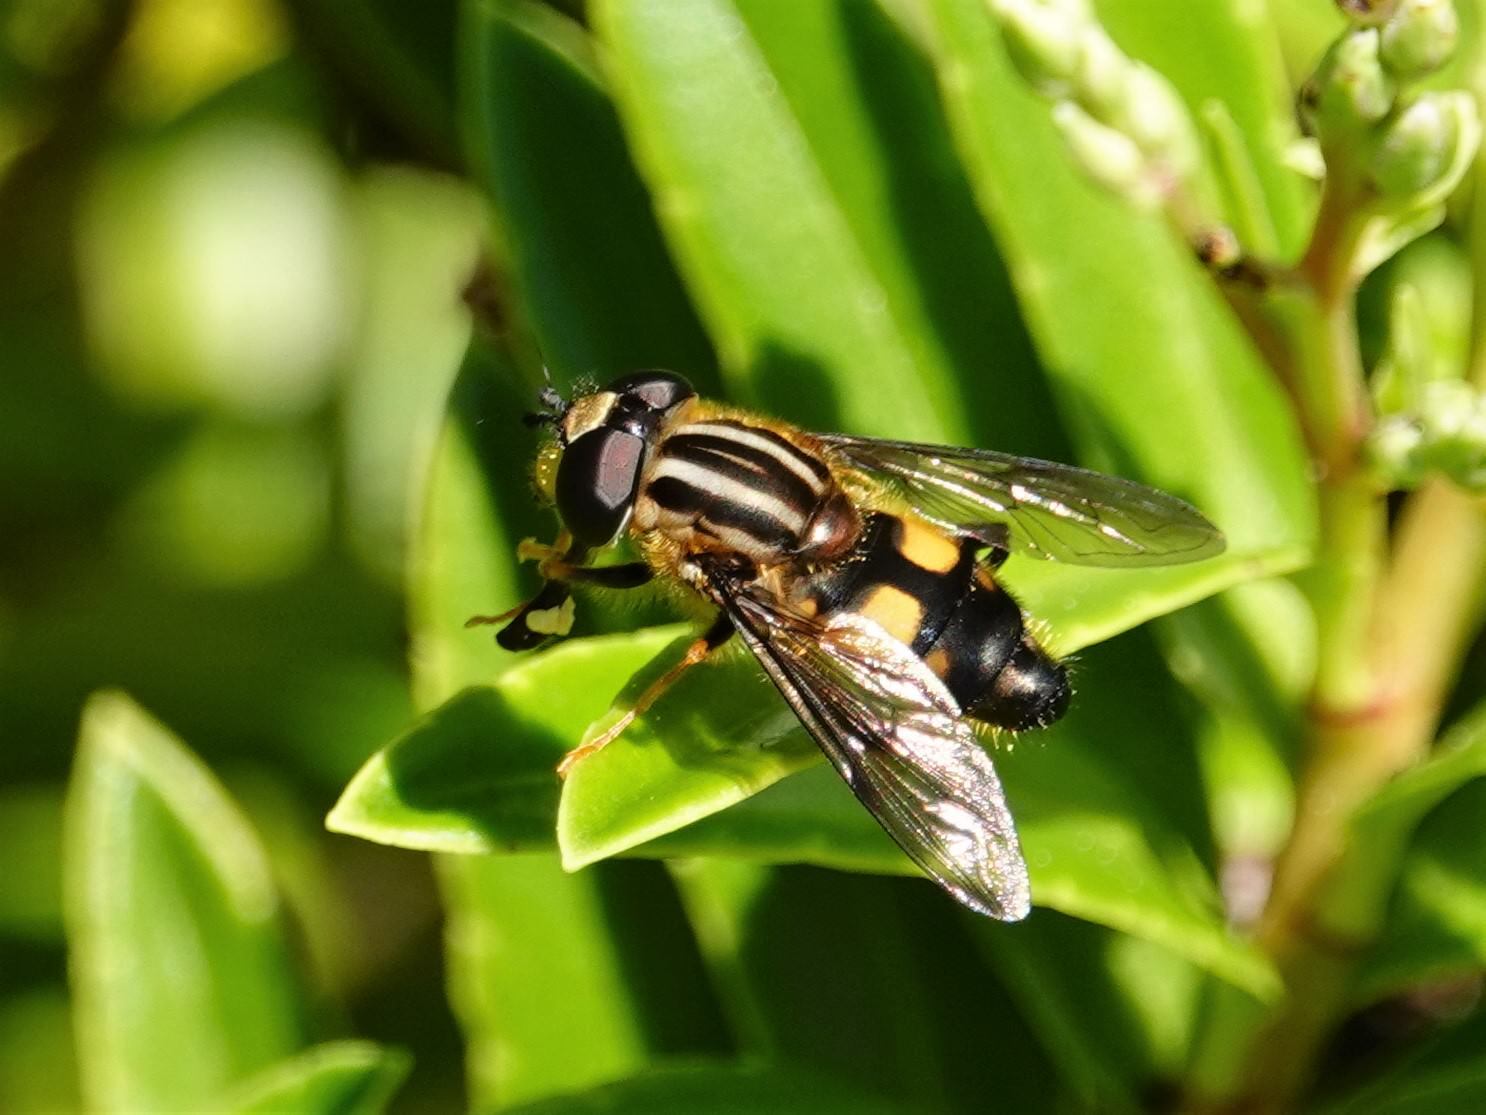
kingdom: Animalia
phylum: Arthropoda
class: Insecta
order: Diptera
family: Syrphidae
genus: Helophilus
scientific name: Helophilus antipodus
